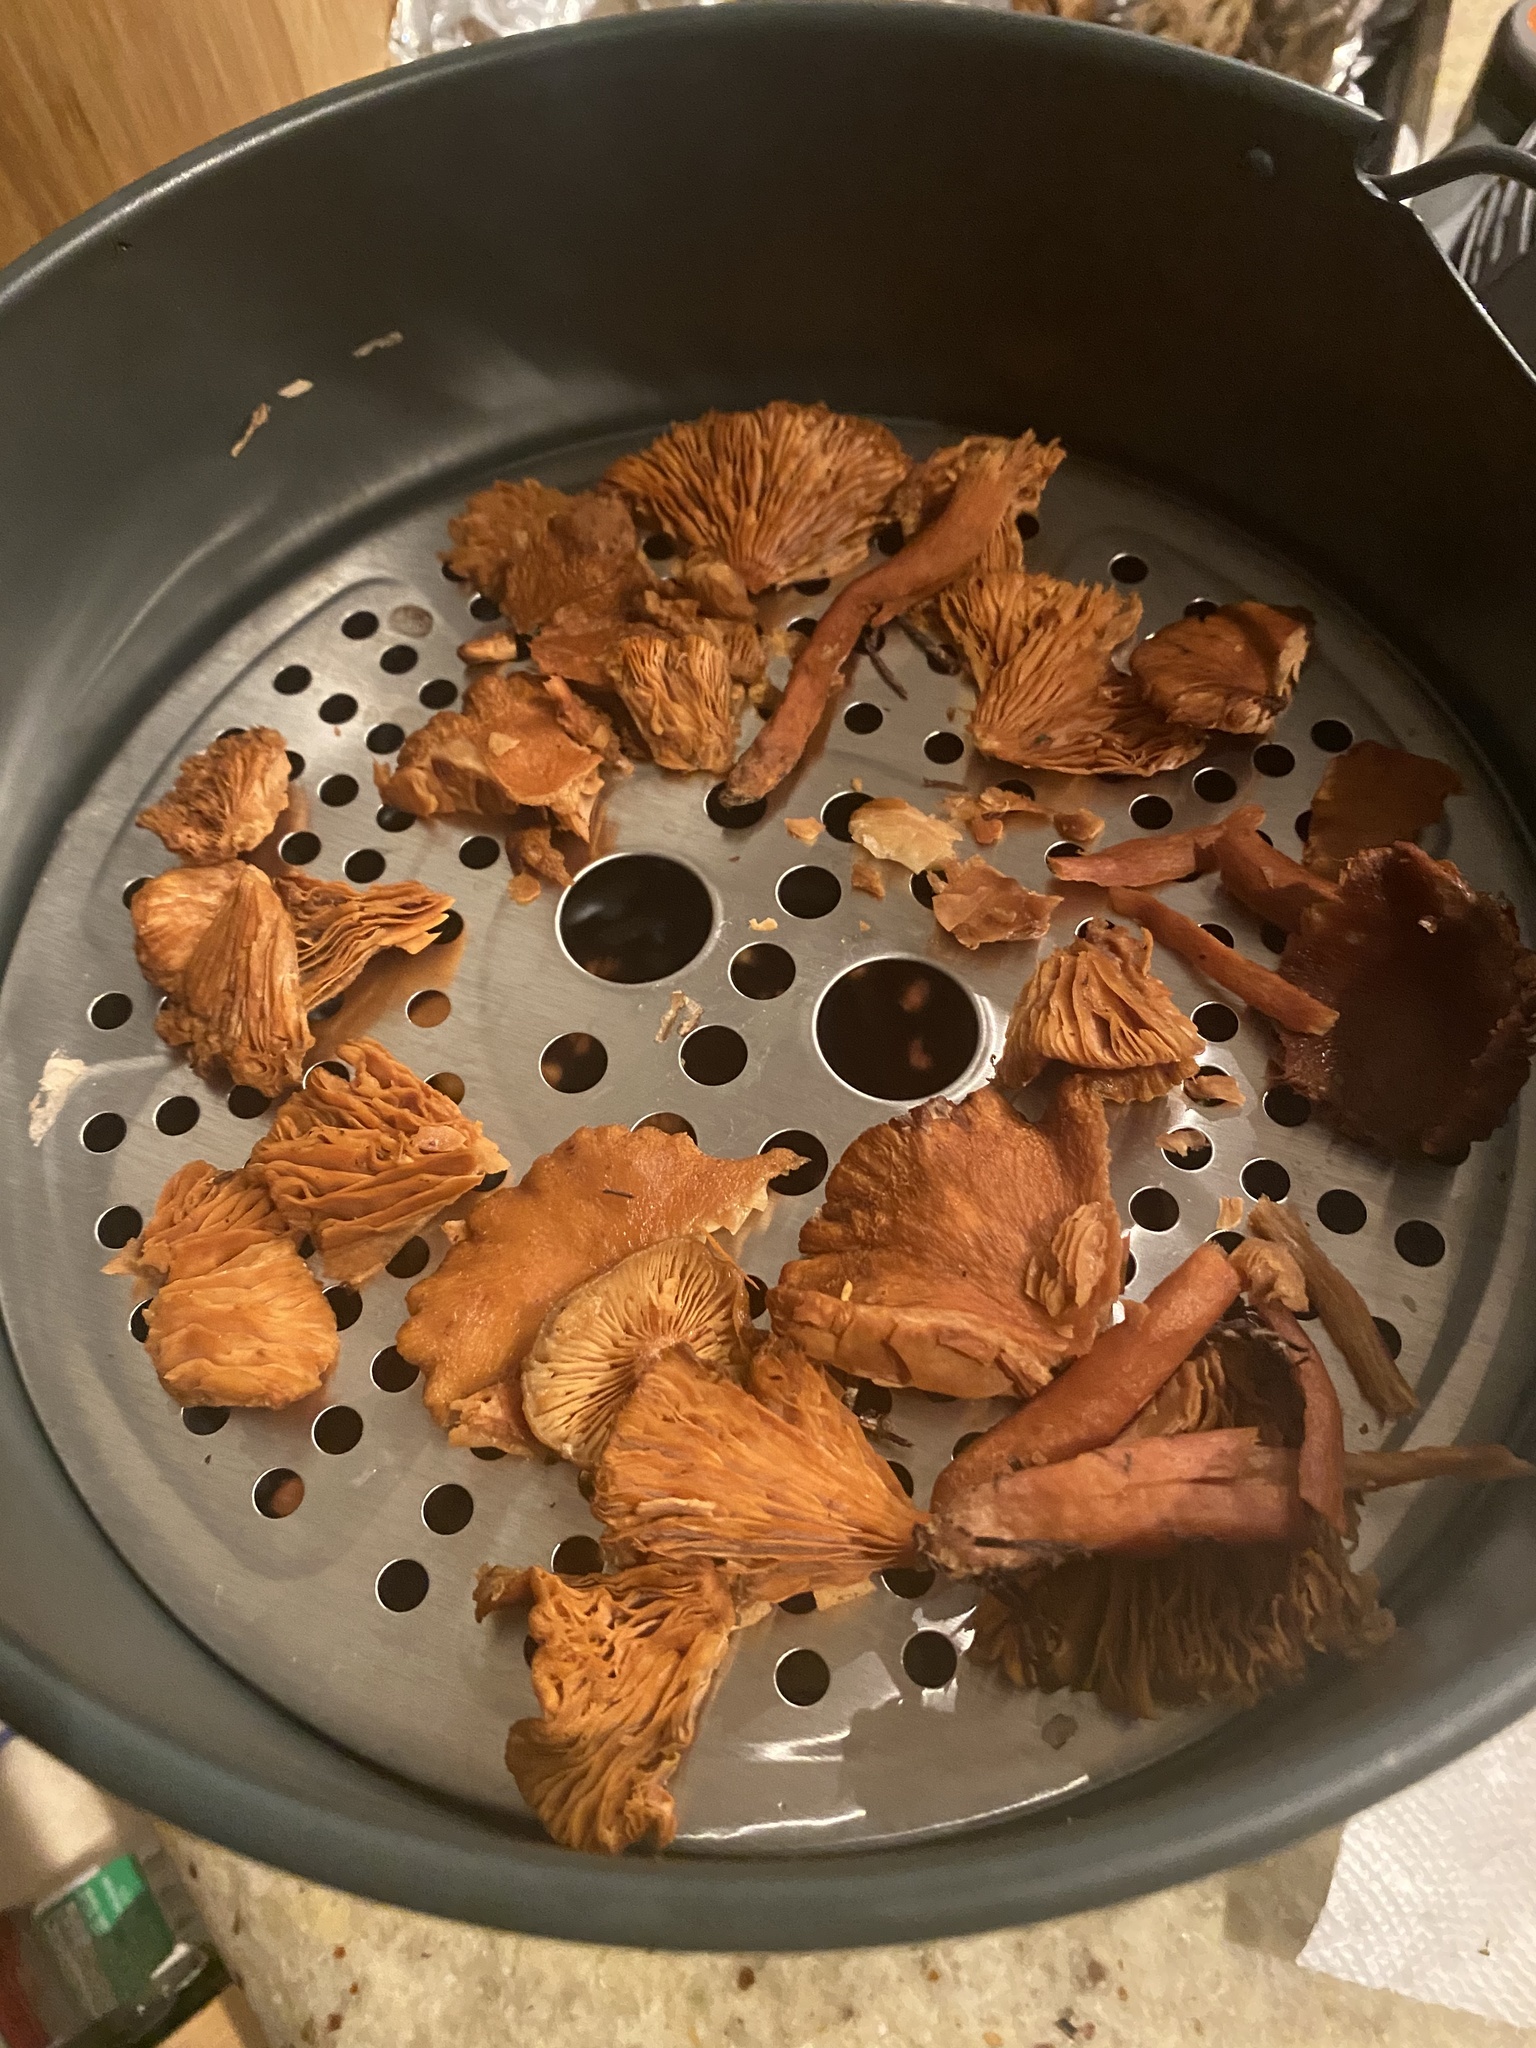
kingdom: Fungi
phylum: Basidiomycota
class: Agaricomycetes
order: Russulales
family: Russulaceae
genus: Lactarius
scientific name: Lactarius rubidus
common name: Candy cap
